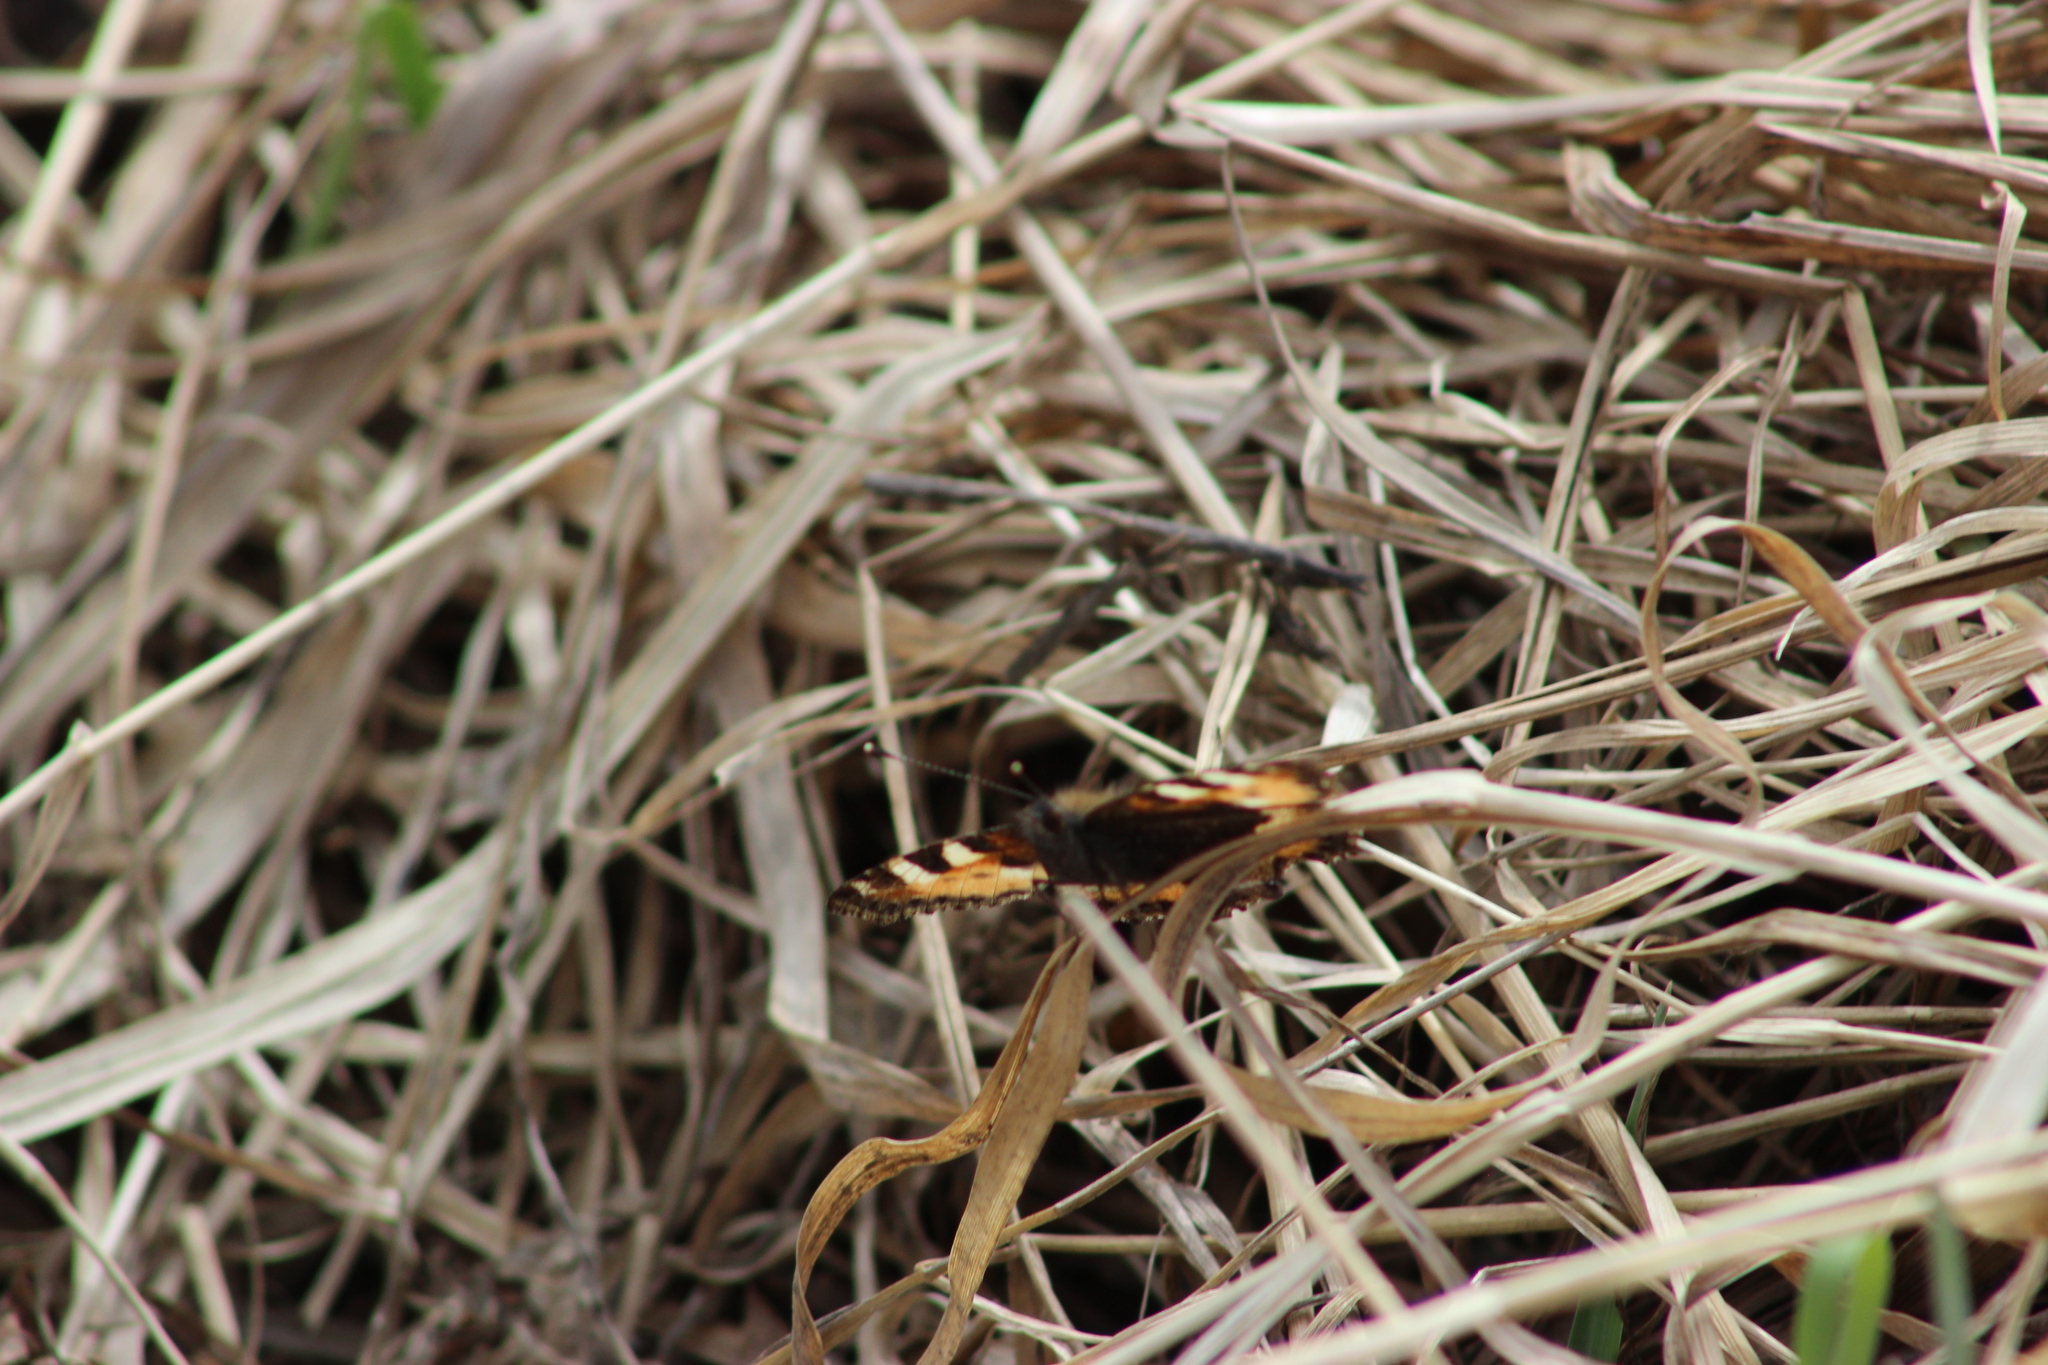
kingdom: Animalia
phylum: Arthropoda
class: Insecta
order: Lepidoptera
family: Nymphalidae
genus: Aglais
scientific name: Aglais urticae
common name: Small tortoiseshell
